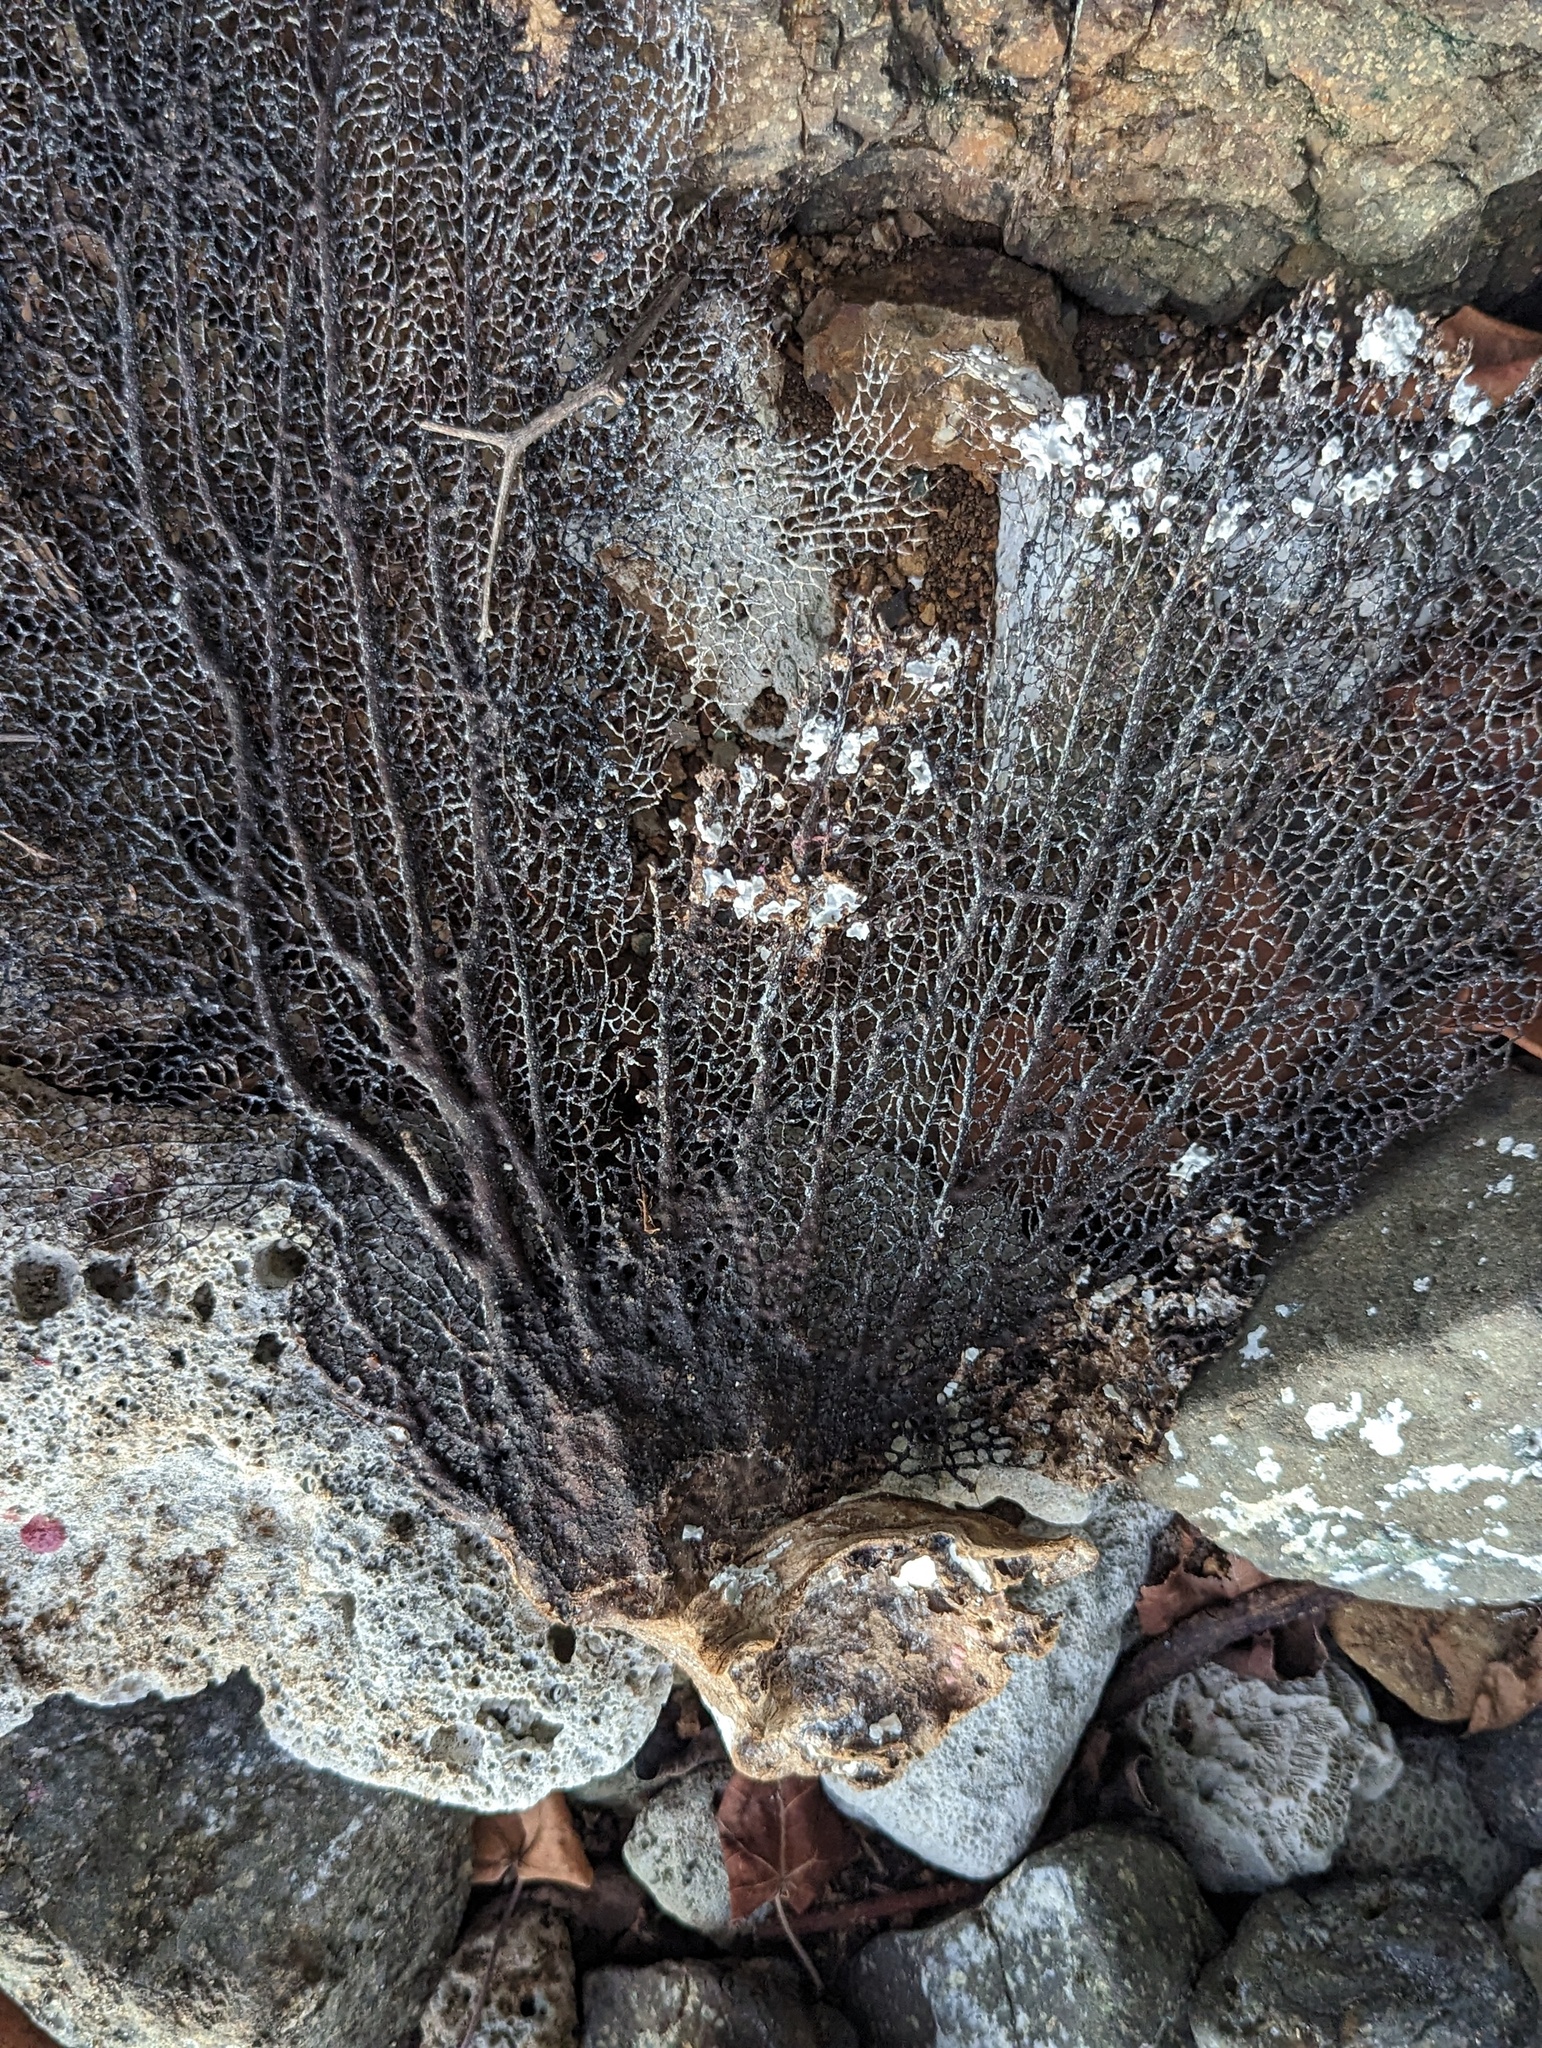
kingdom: Animalia
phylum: Cnidaria
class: Anthozoa
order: Malacalcyonacea
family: Gorgoniidae
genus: Gorgonia
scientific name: Gorgonia ventalina
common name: Common sea fan
